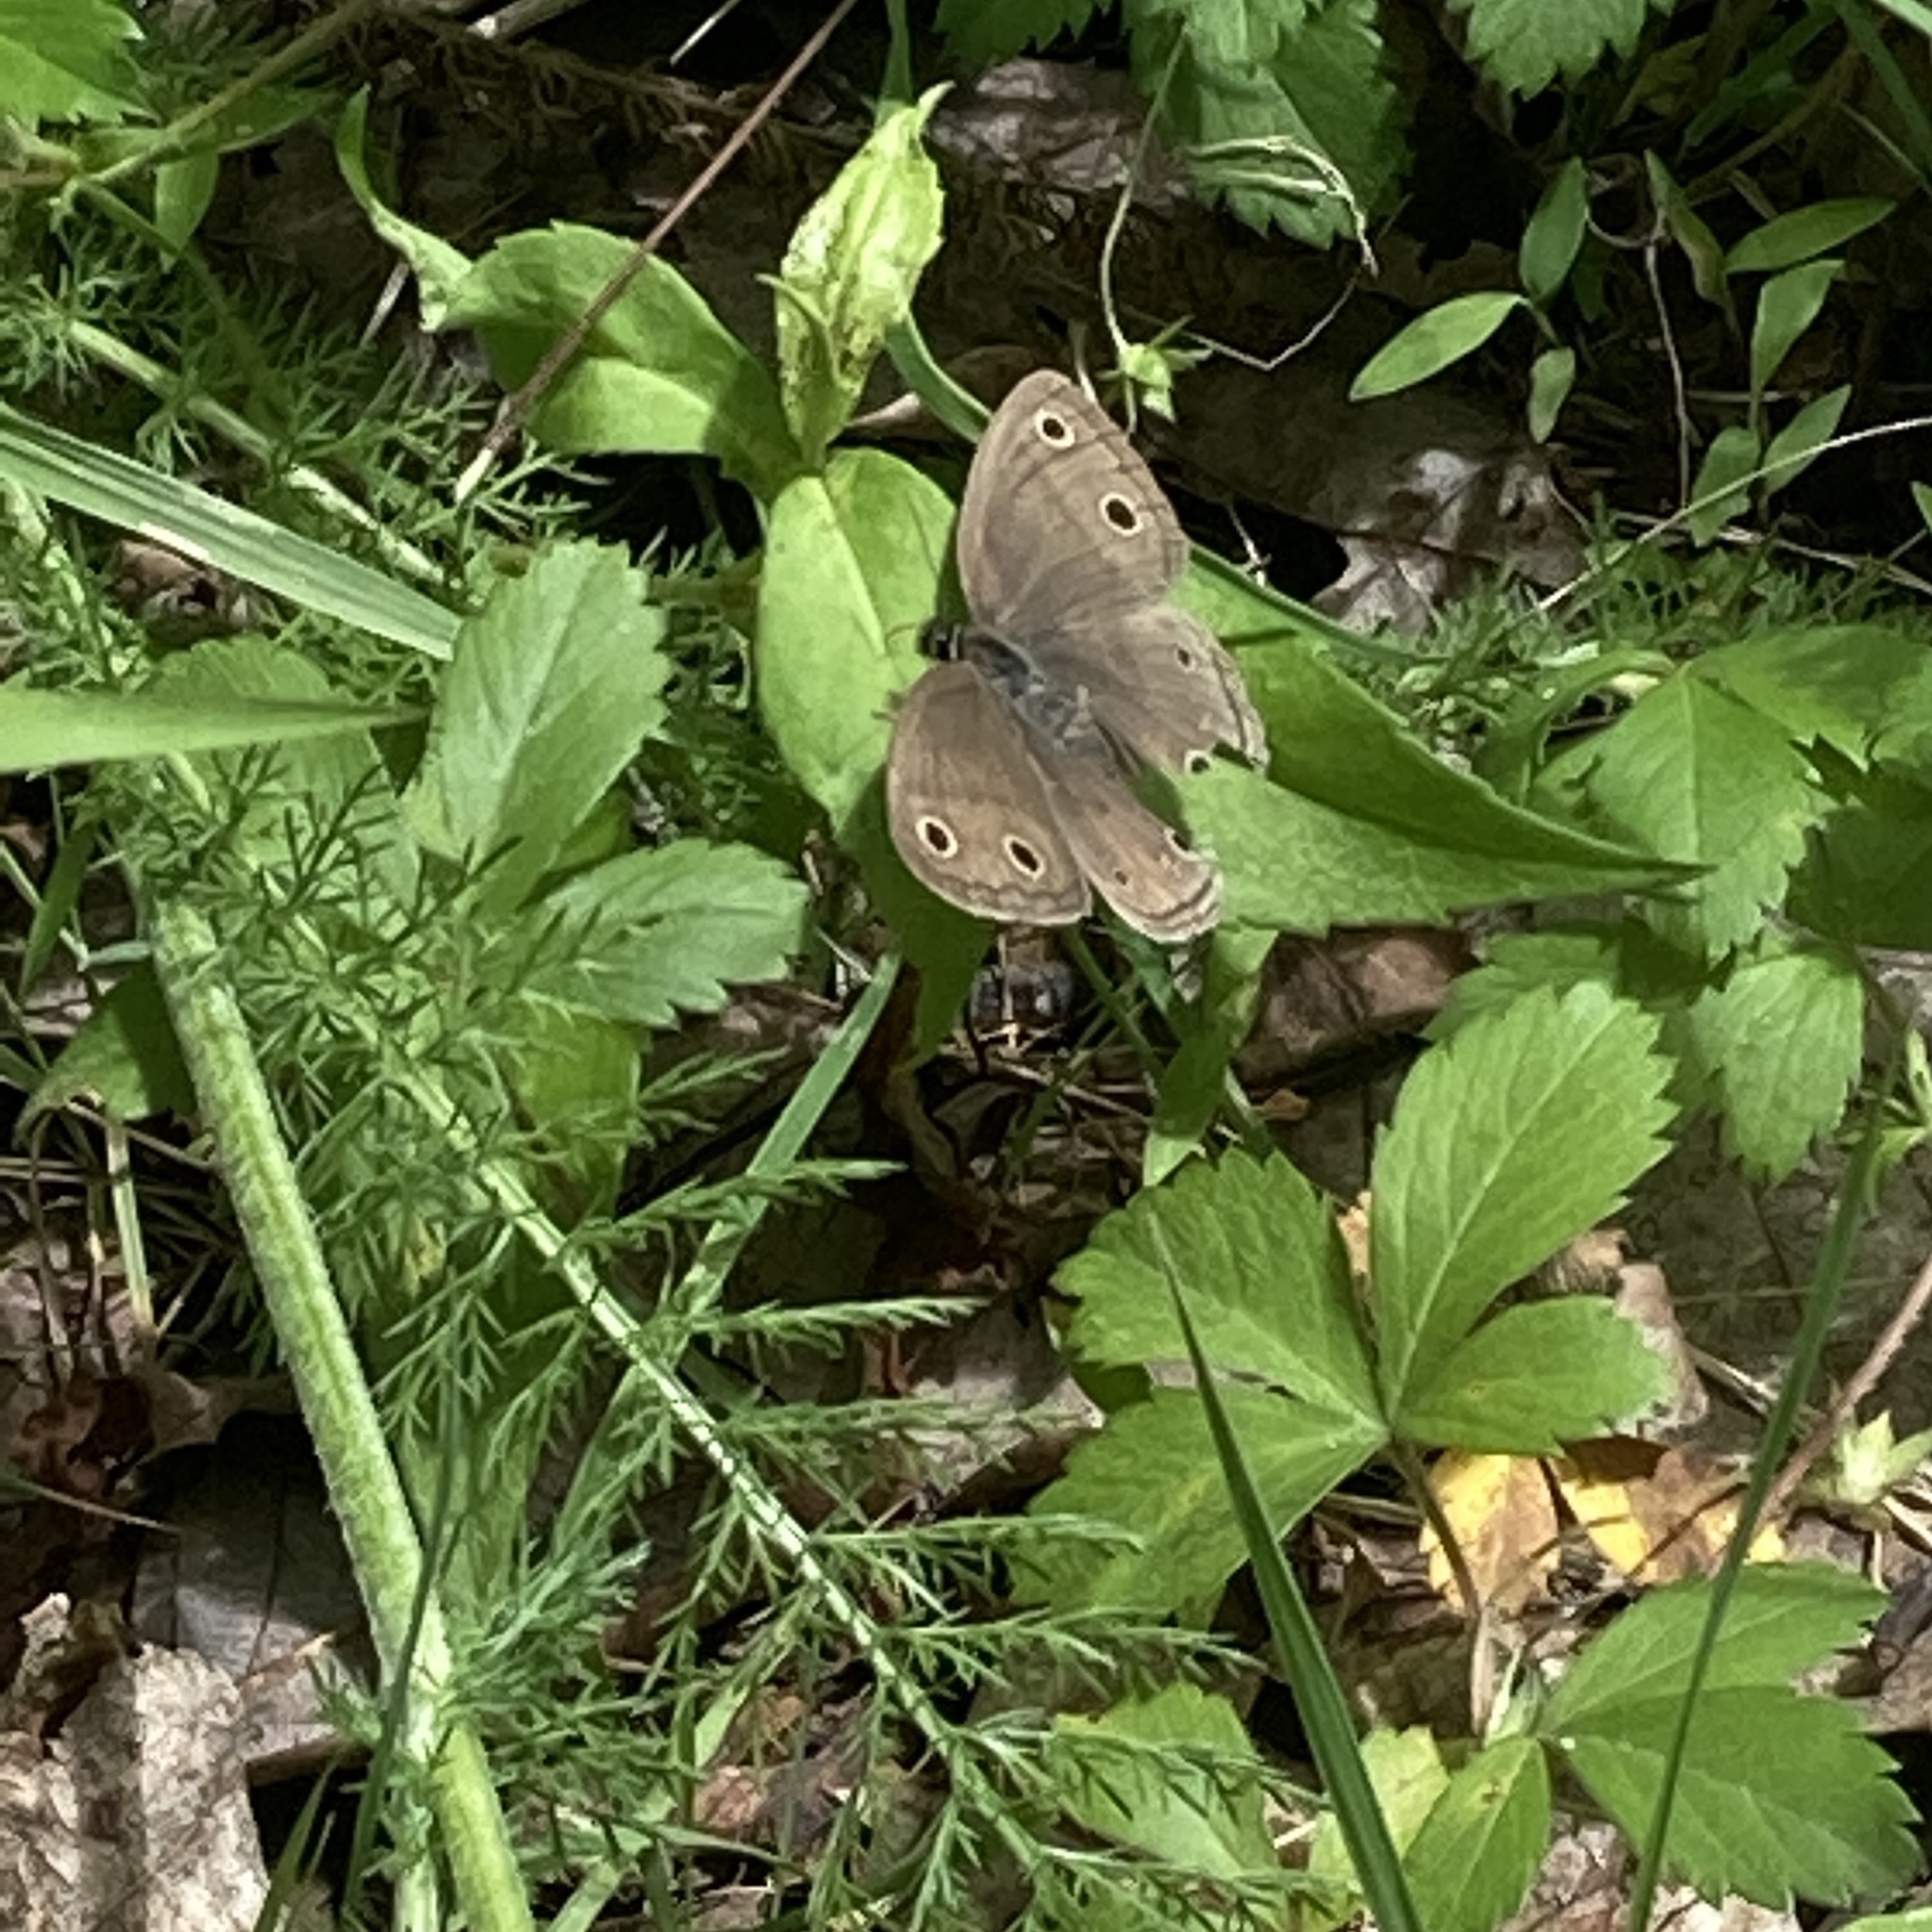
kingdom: Animalia
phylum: Arthropoda
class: Insecta
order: Lepidoptera
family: Nymphalidae
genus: Euptychia
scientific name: Euptychia cymela
